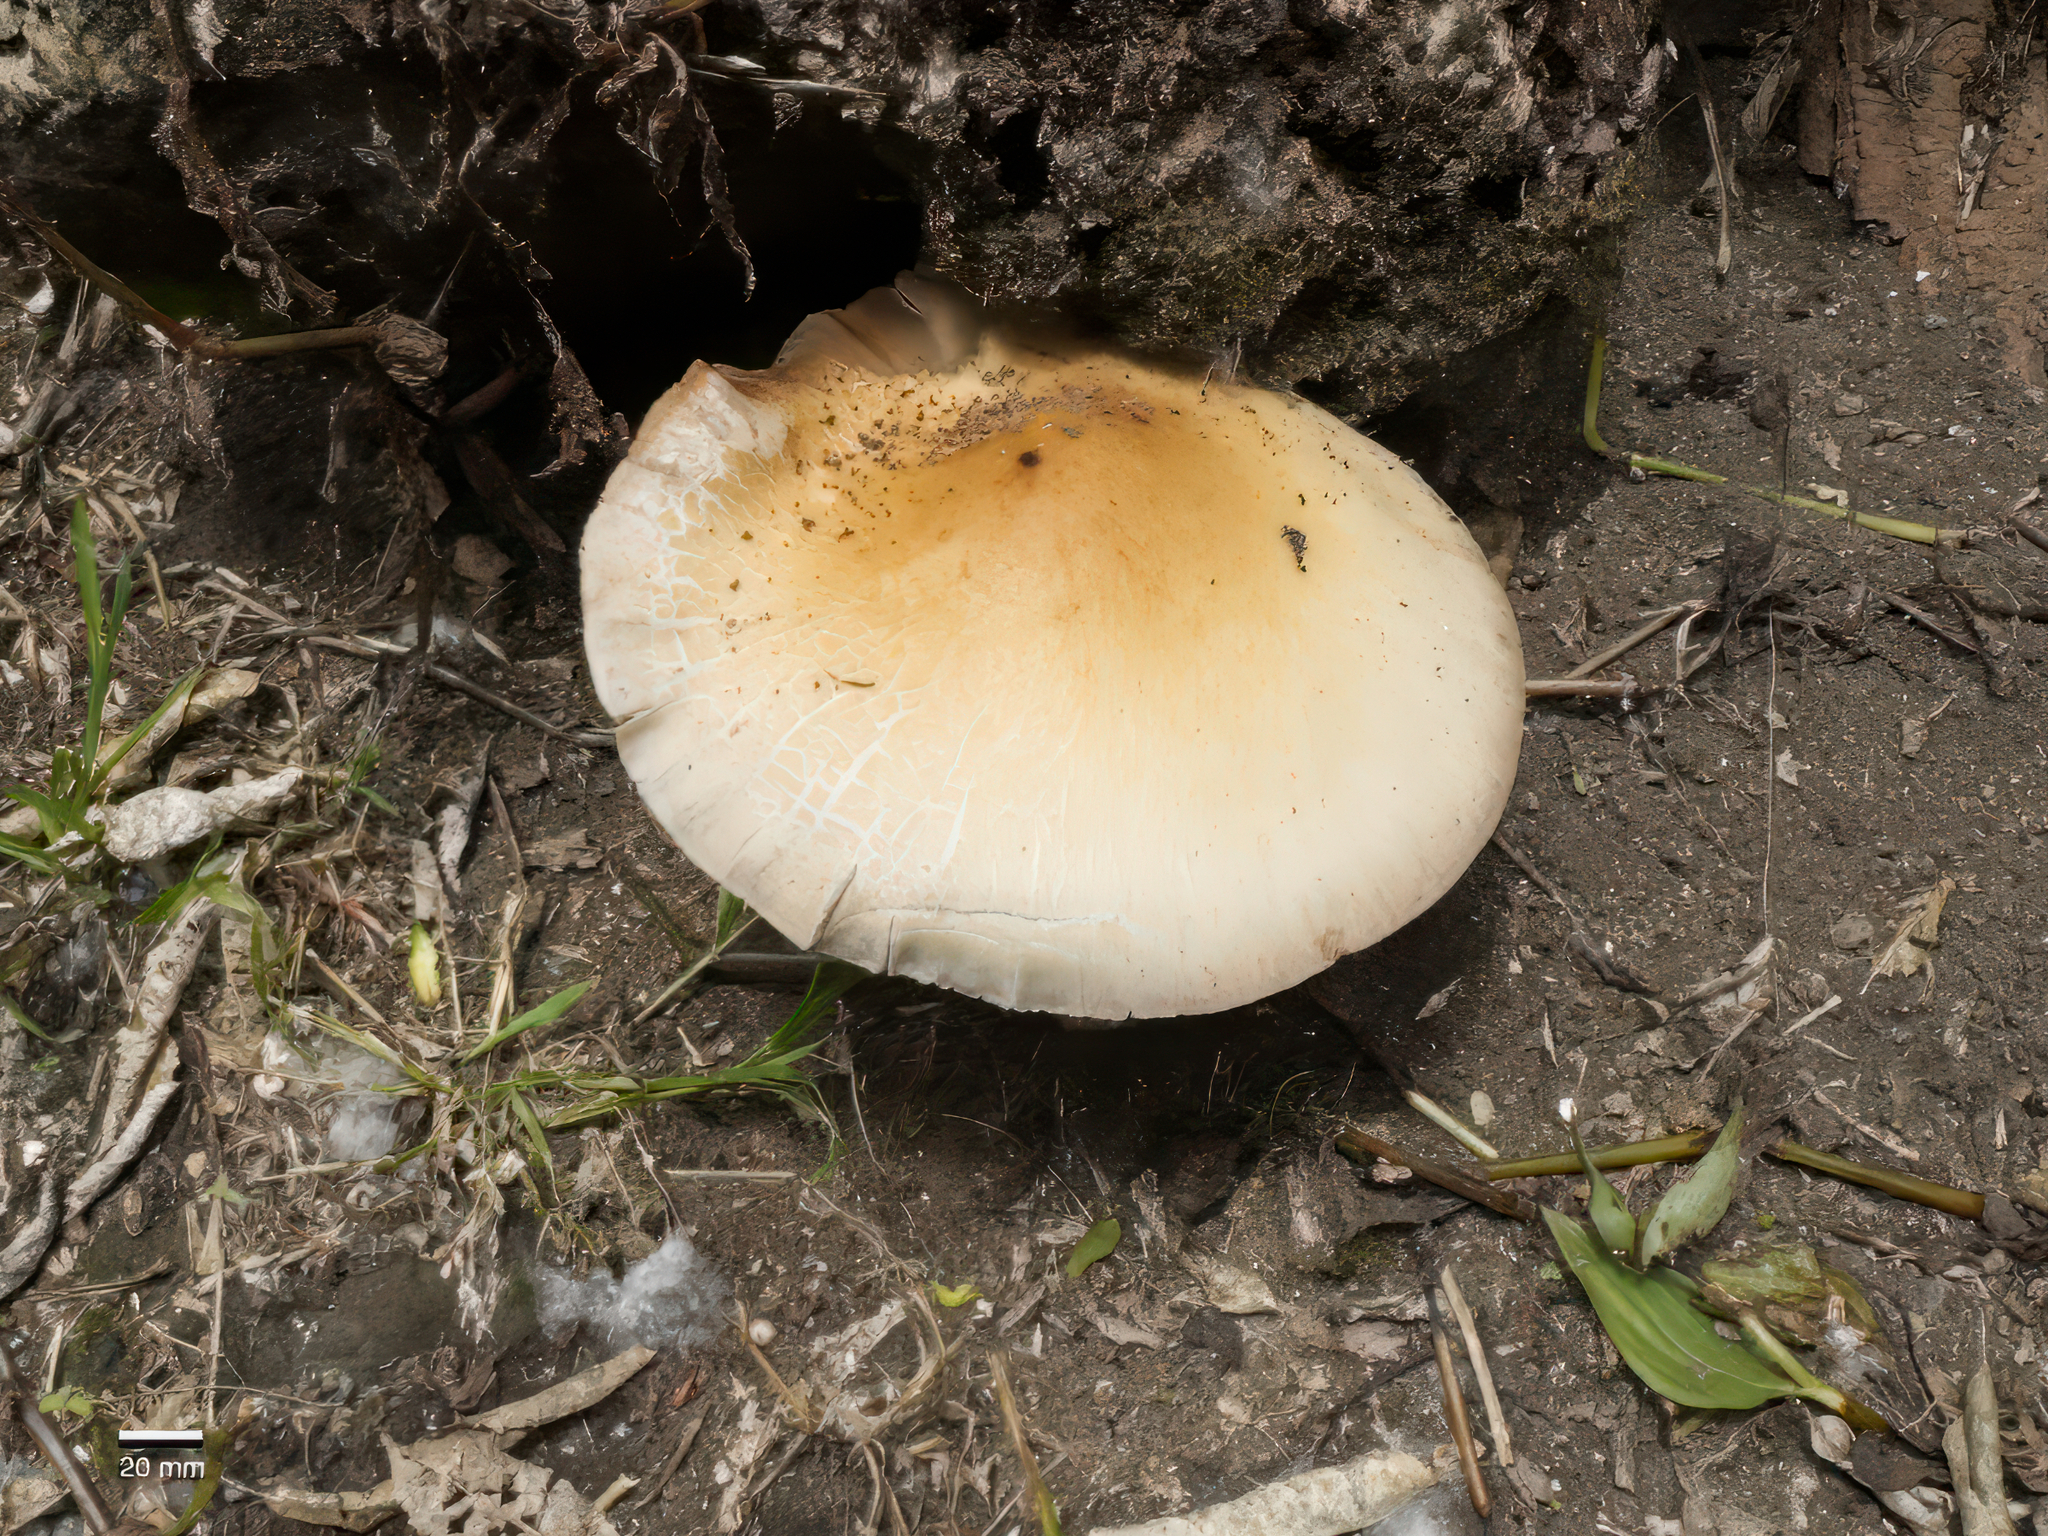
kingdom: Fungi
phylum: Basidiomycota
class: Agaricomycetes
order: Agaricales
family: Tubariaceae
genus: Cyclocybe
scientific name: Cyclocybe parasitica
